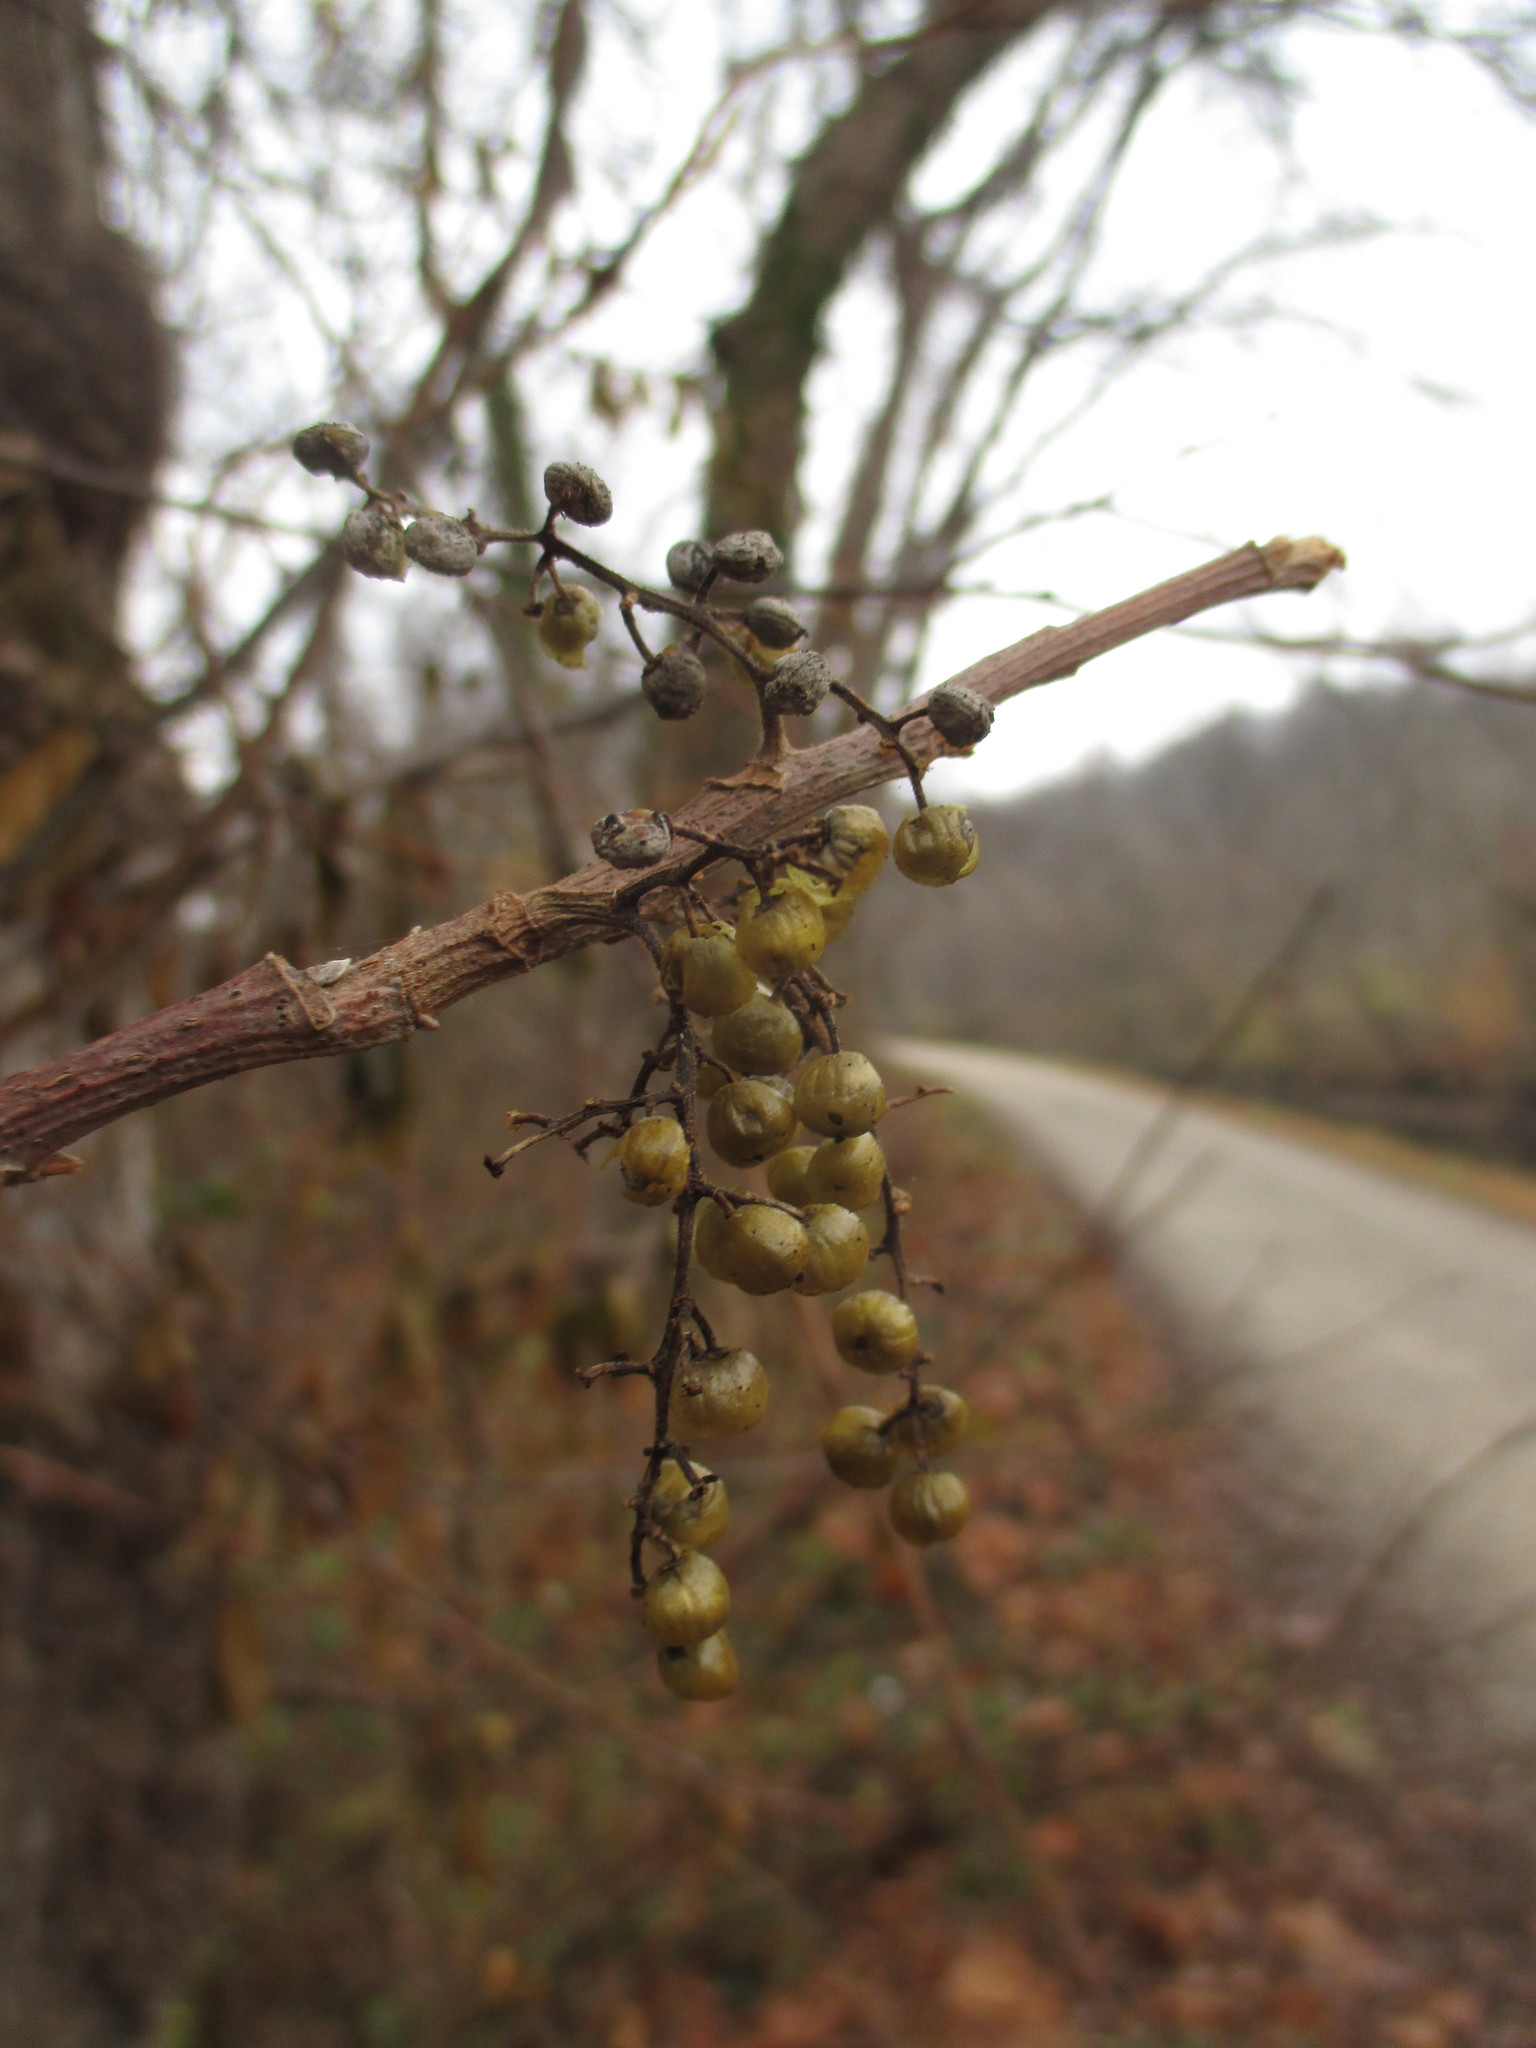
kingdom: Plantae
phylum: Tracheophyta
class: Magnoliopsida
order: Sapindales
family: Anacardiaceae
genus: Toxicodendron
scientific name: Toxicodendron radicans
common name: Poison ivy
